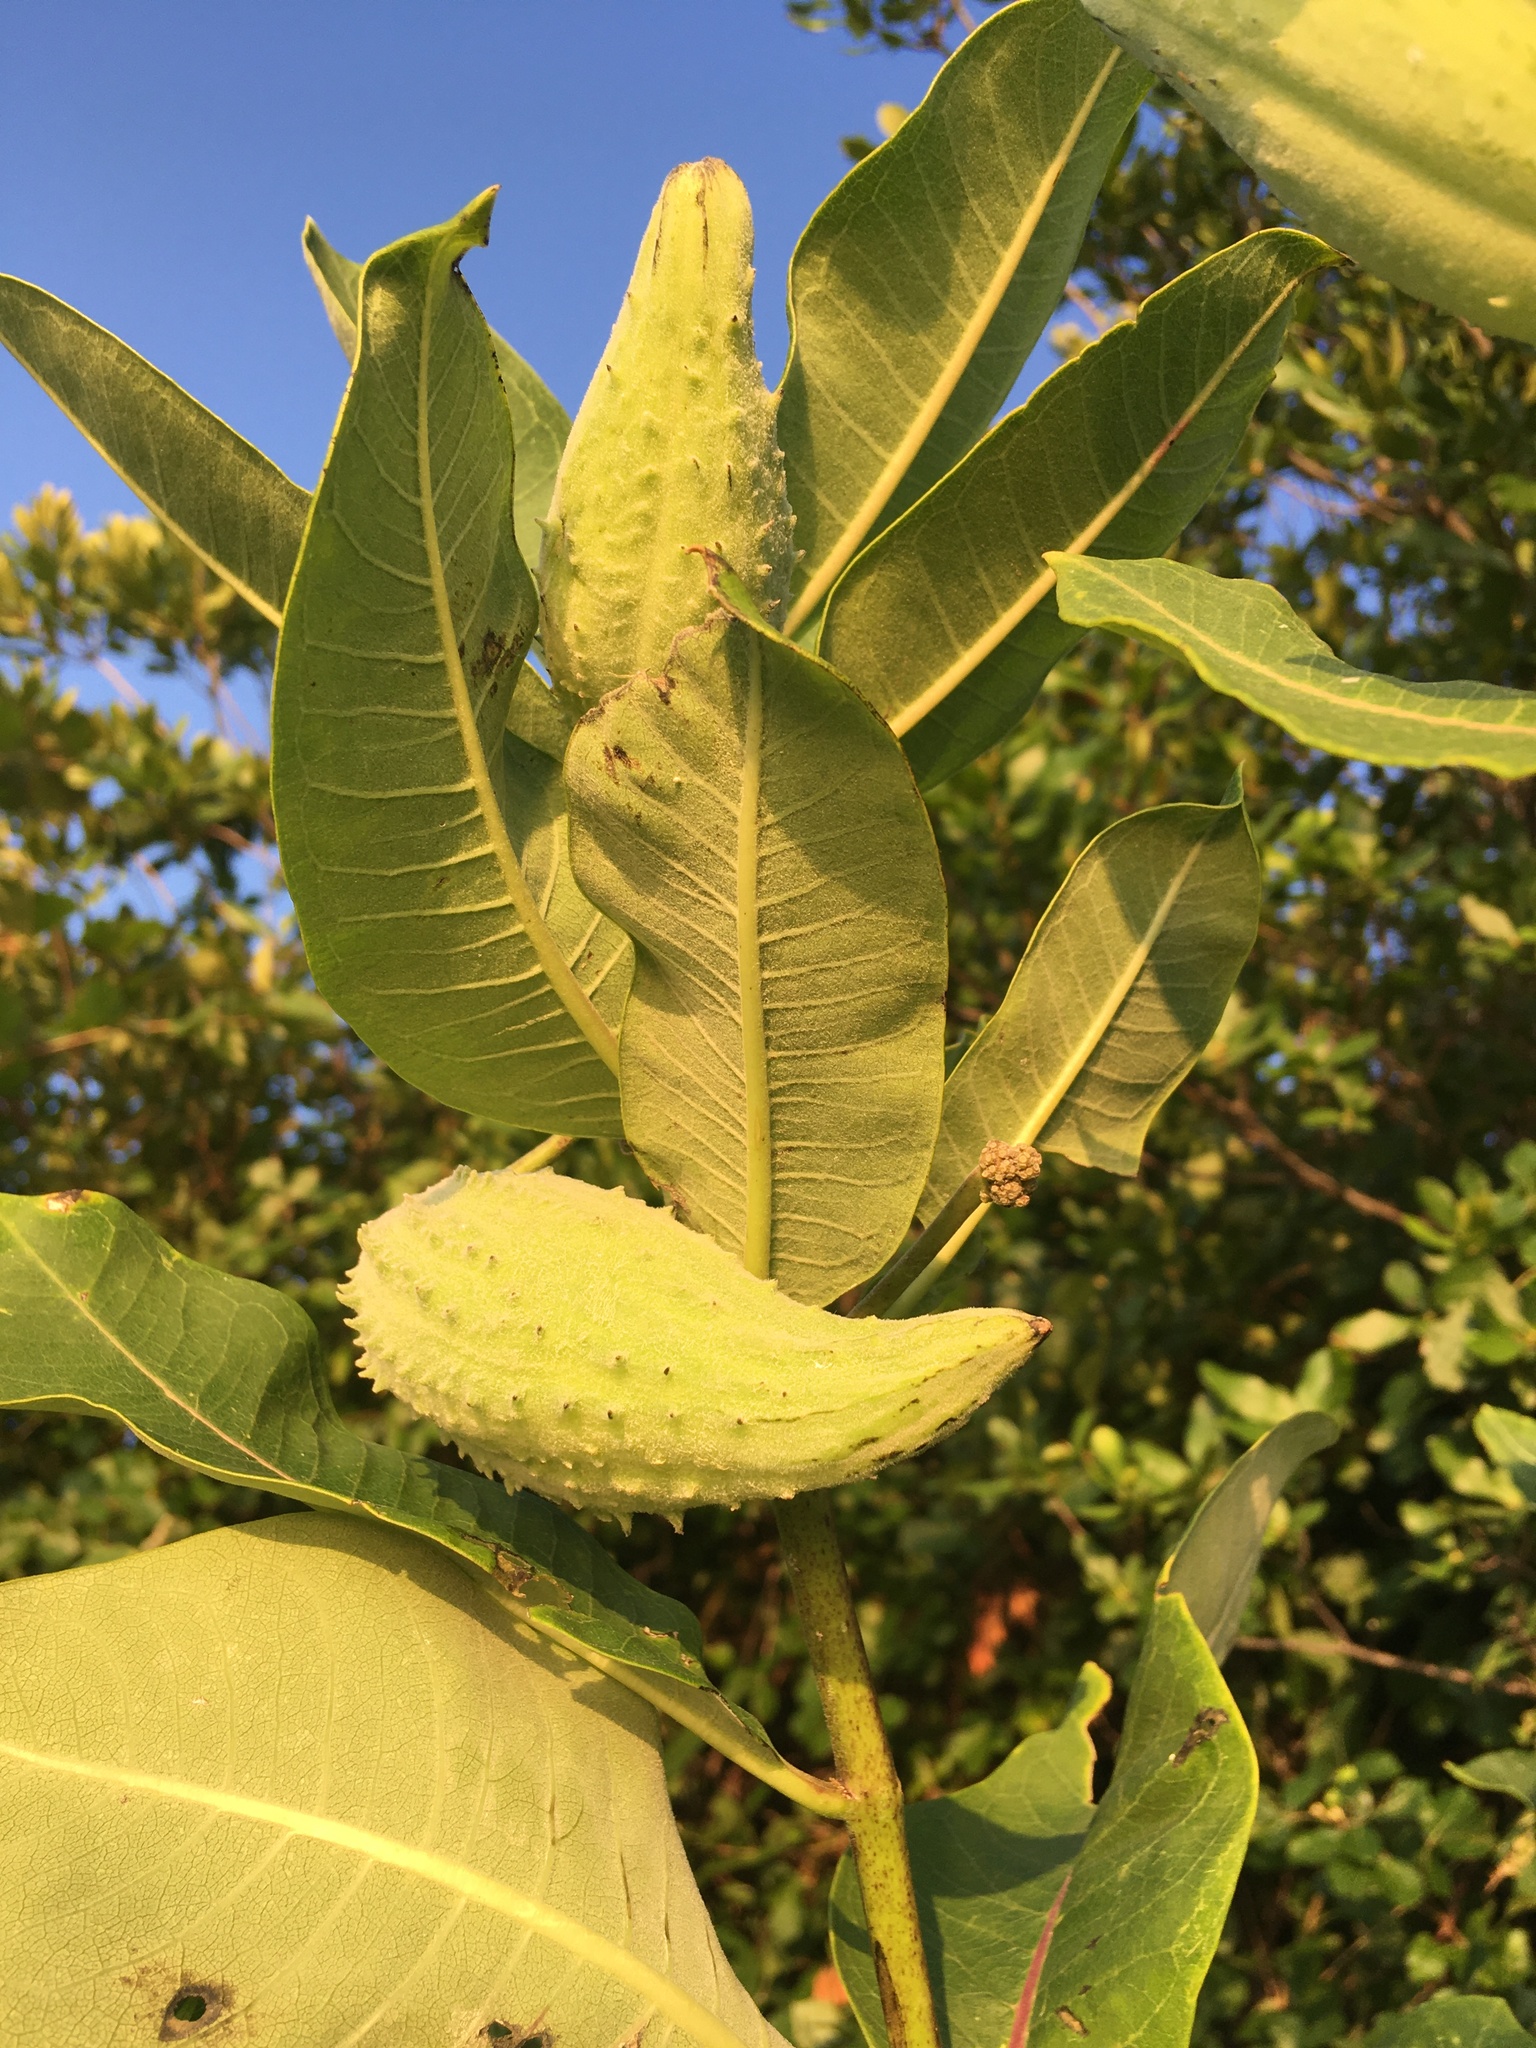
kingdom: Plantae
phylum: Tracheophyta
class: Magnoliopsida
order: Gentianales
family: Apocynaceae
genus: Asclepias
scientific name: Asclepias syriaca
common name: Common milkweed
